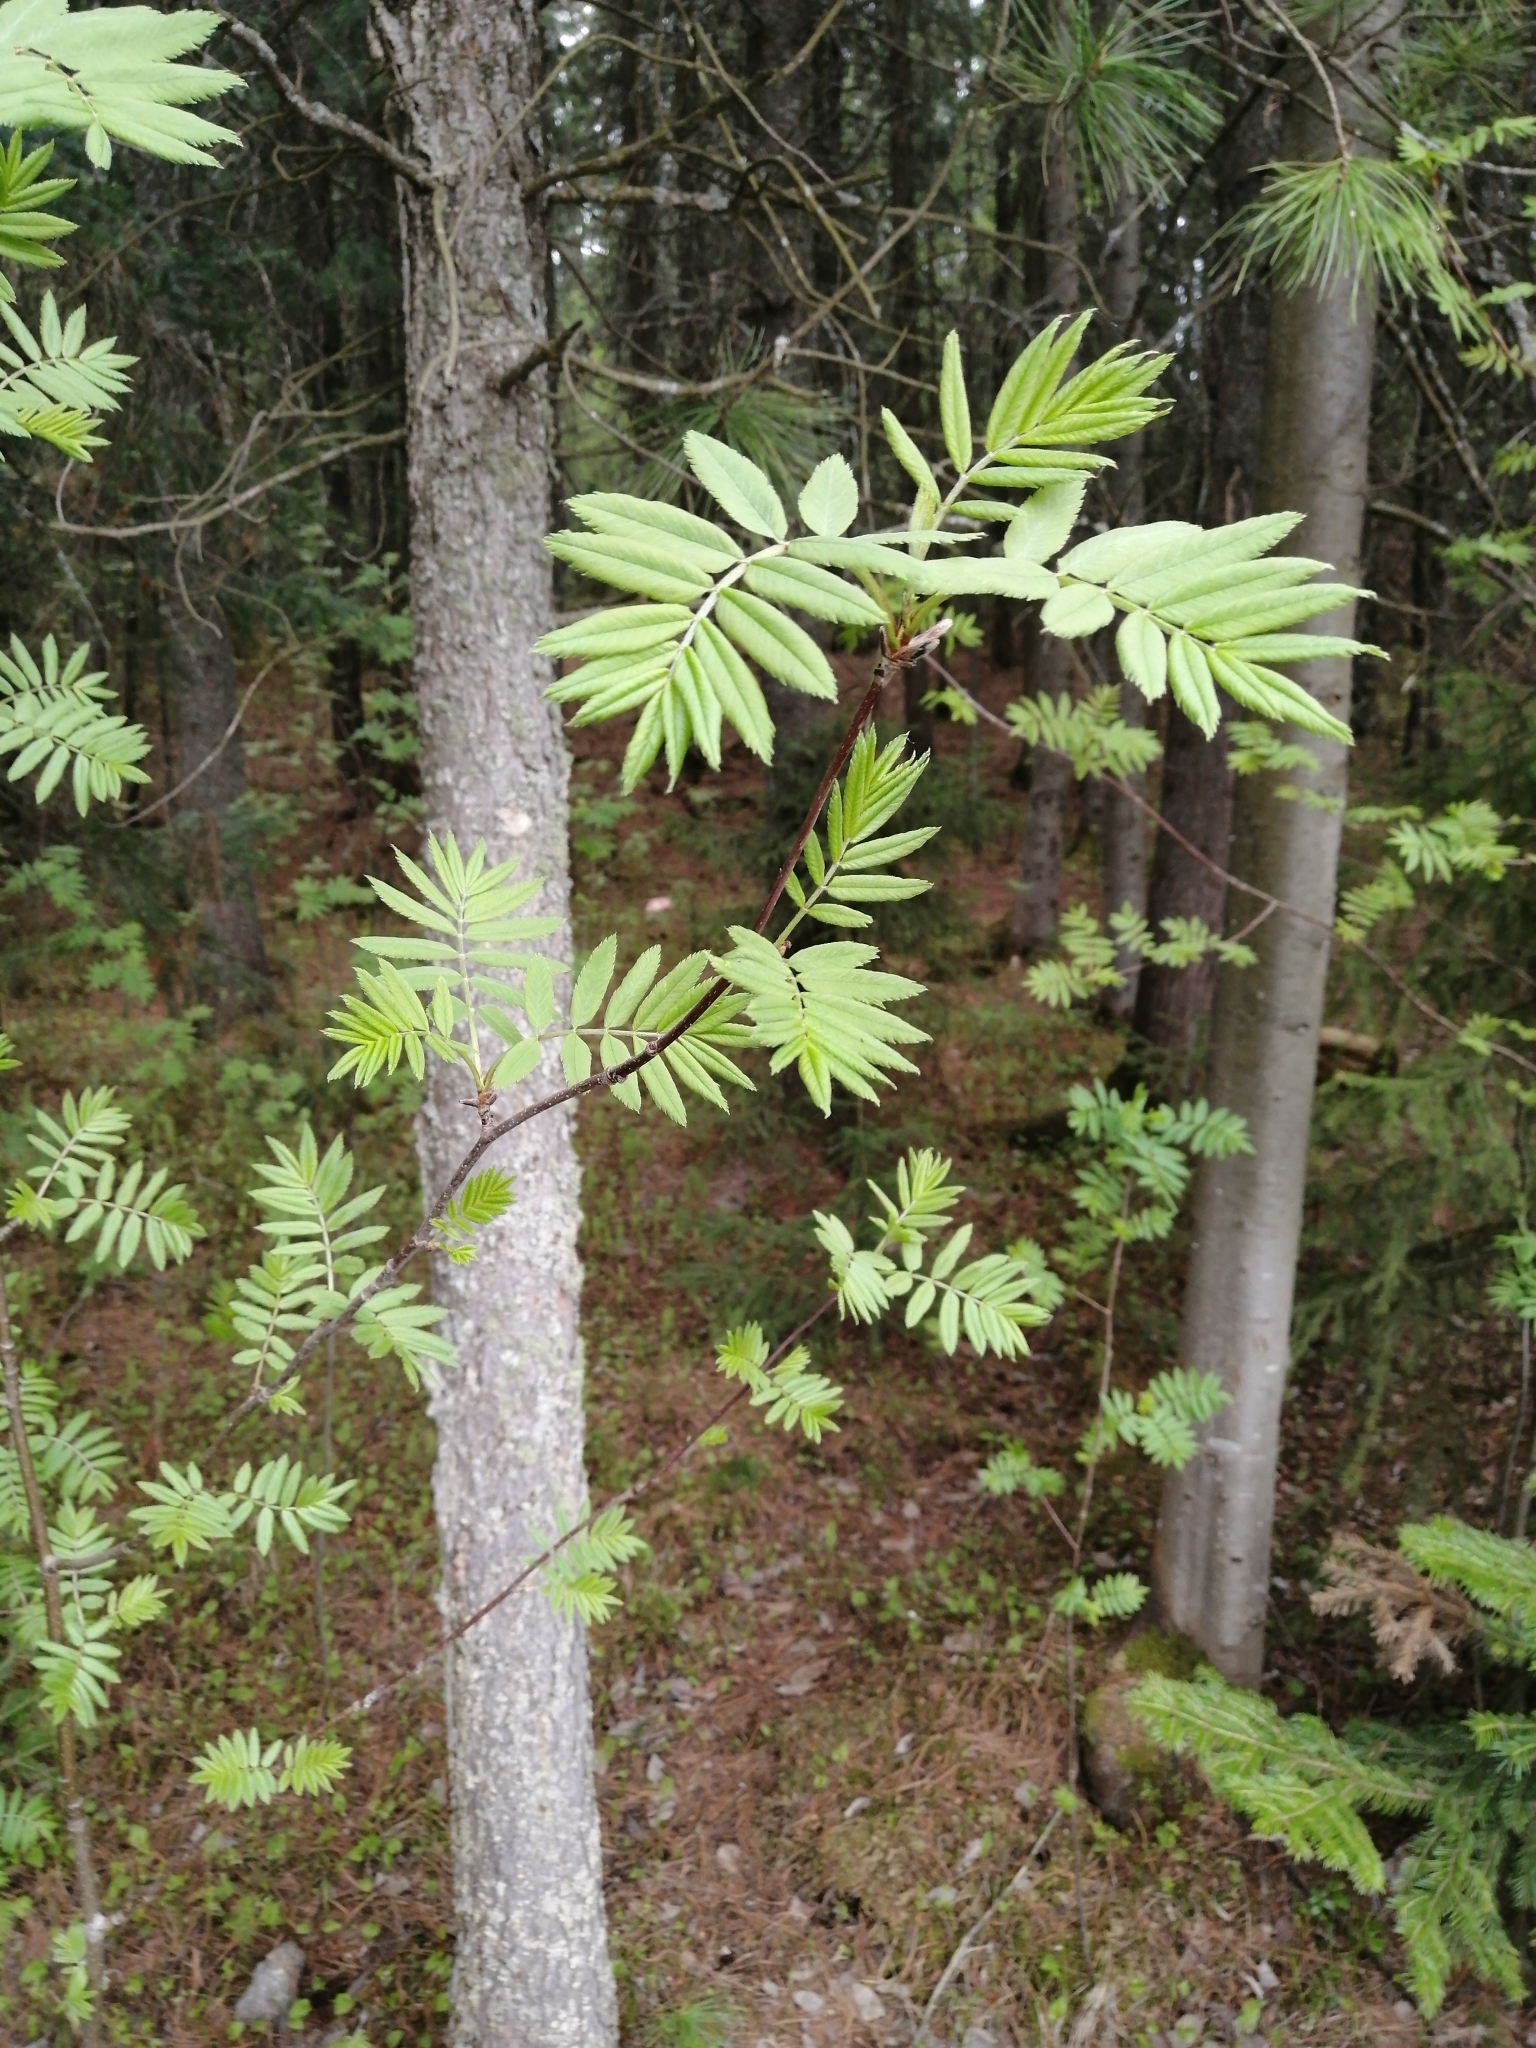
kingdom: Plantae
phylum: Tracheophyta
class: Magnoliopsida
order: Rosales
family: Rosaceae
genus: Sorbus
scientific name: Sorbus aucuparia
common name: Rowan
